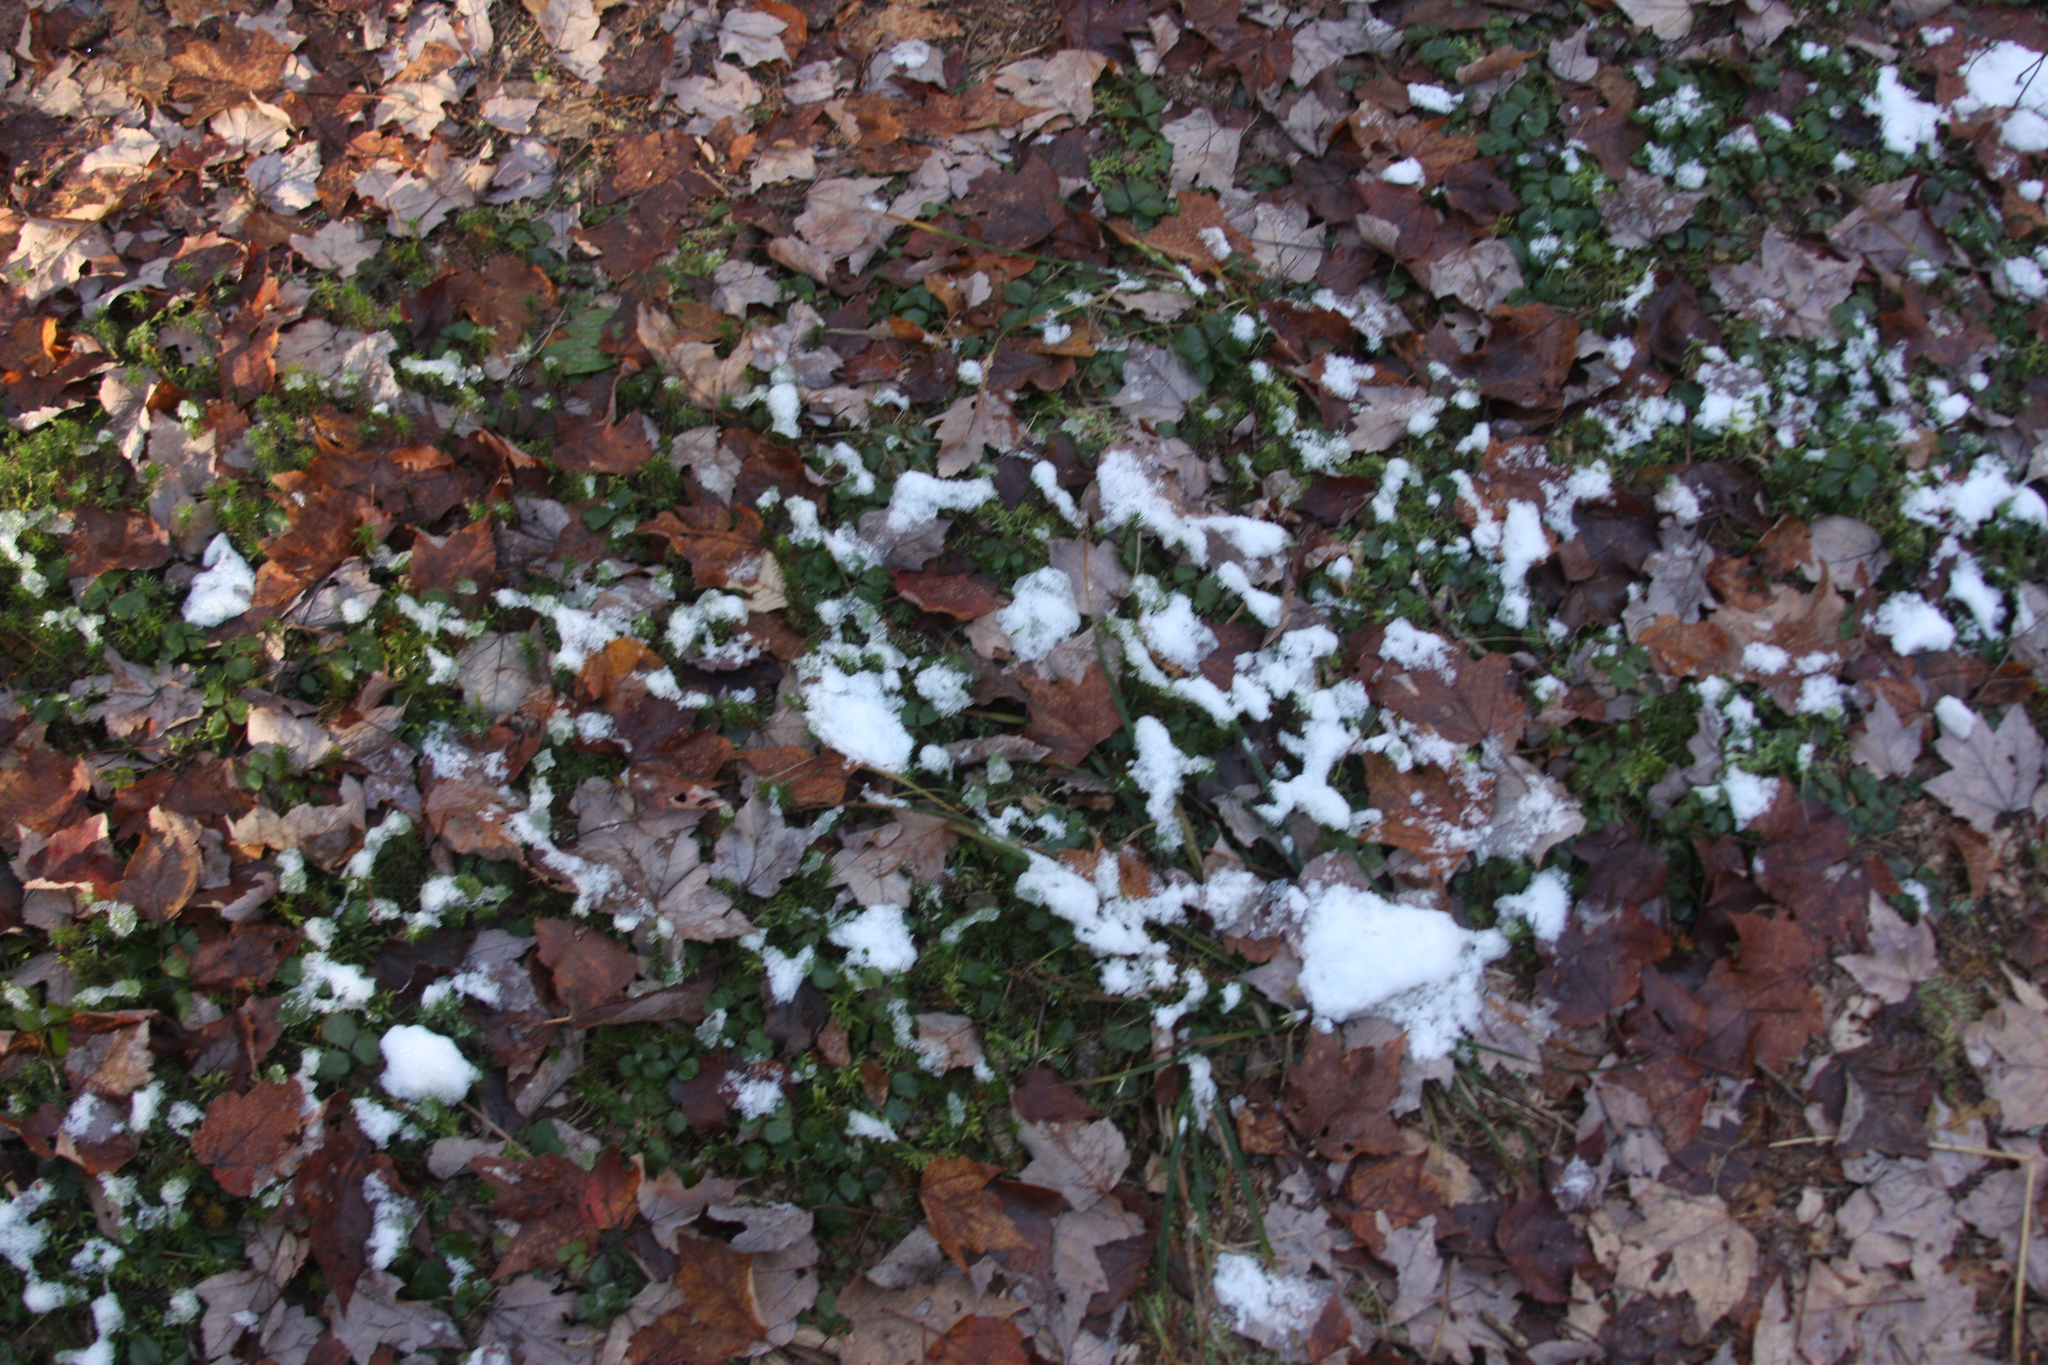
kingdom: Plantae
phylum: Tracheophyta
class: Magnoliopsida
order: Ranunculales
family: Ranunculaceae
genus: Coptis
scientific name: Coptis trifolia
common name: Canker-root
